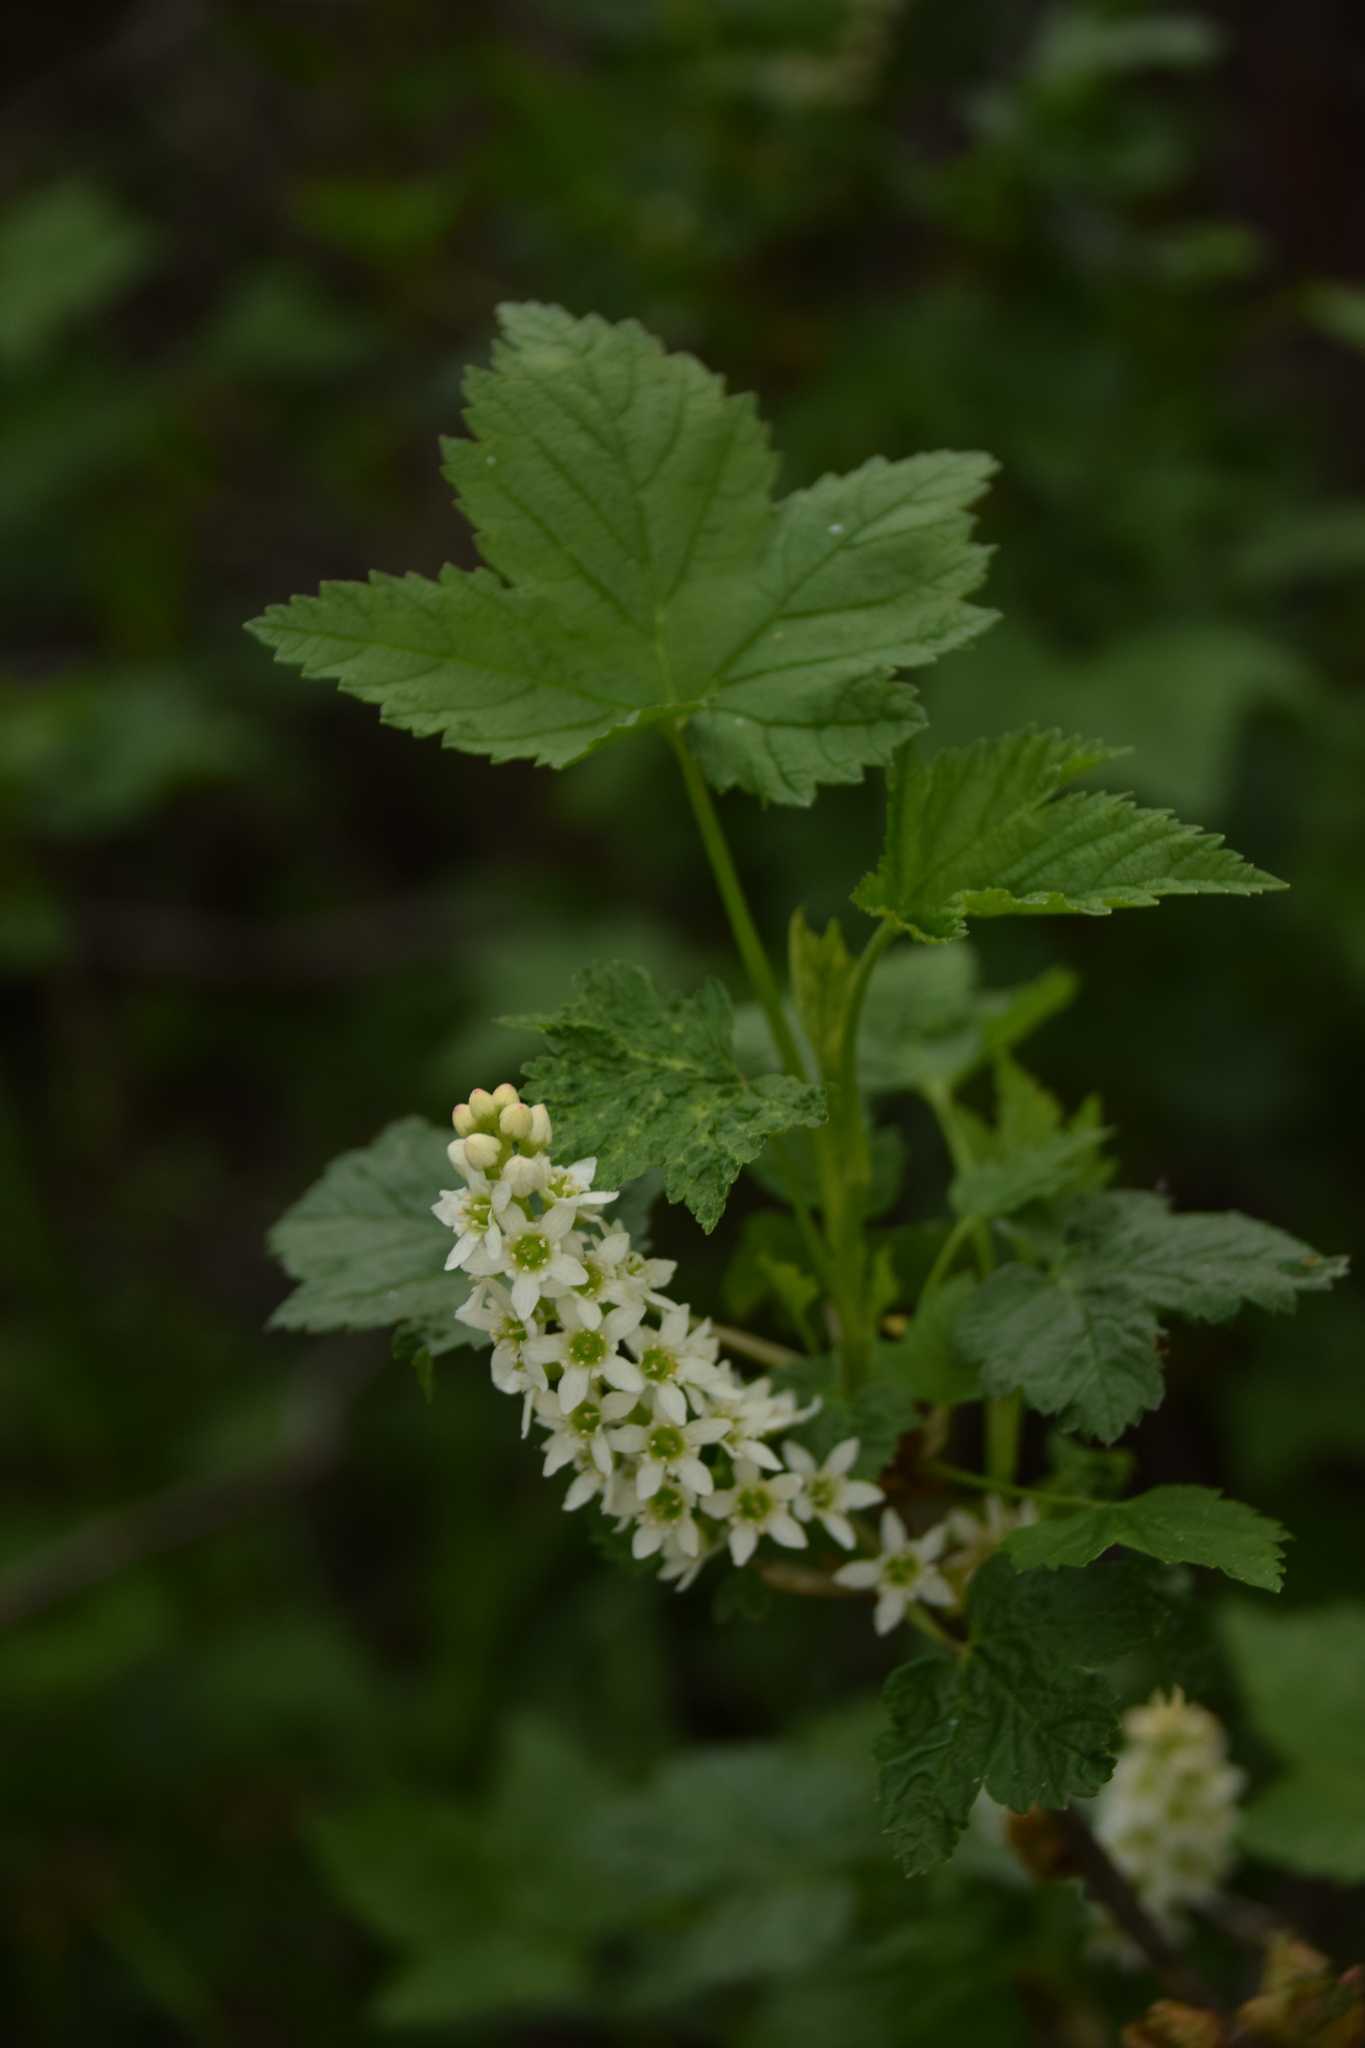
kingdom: Plantae
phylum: Tracheophyta
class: Magnoliopsida
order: Saxifragales
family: Grossulariaceae
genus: Ribes
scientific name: Ribes hudsonianum
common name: Northern black currant
